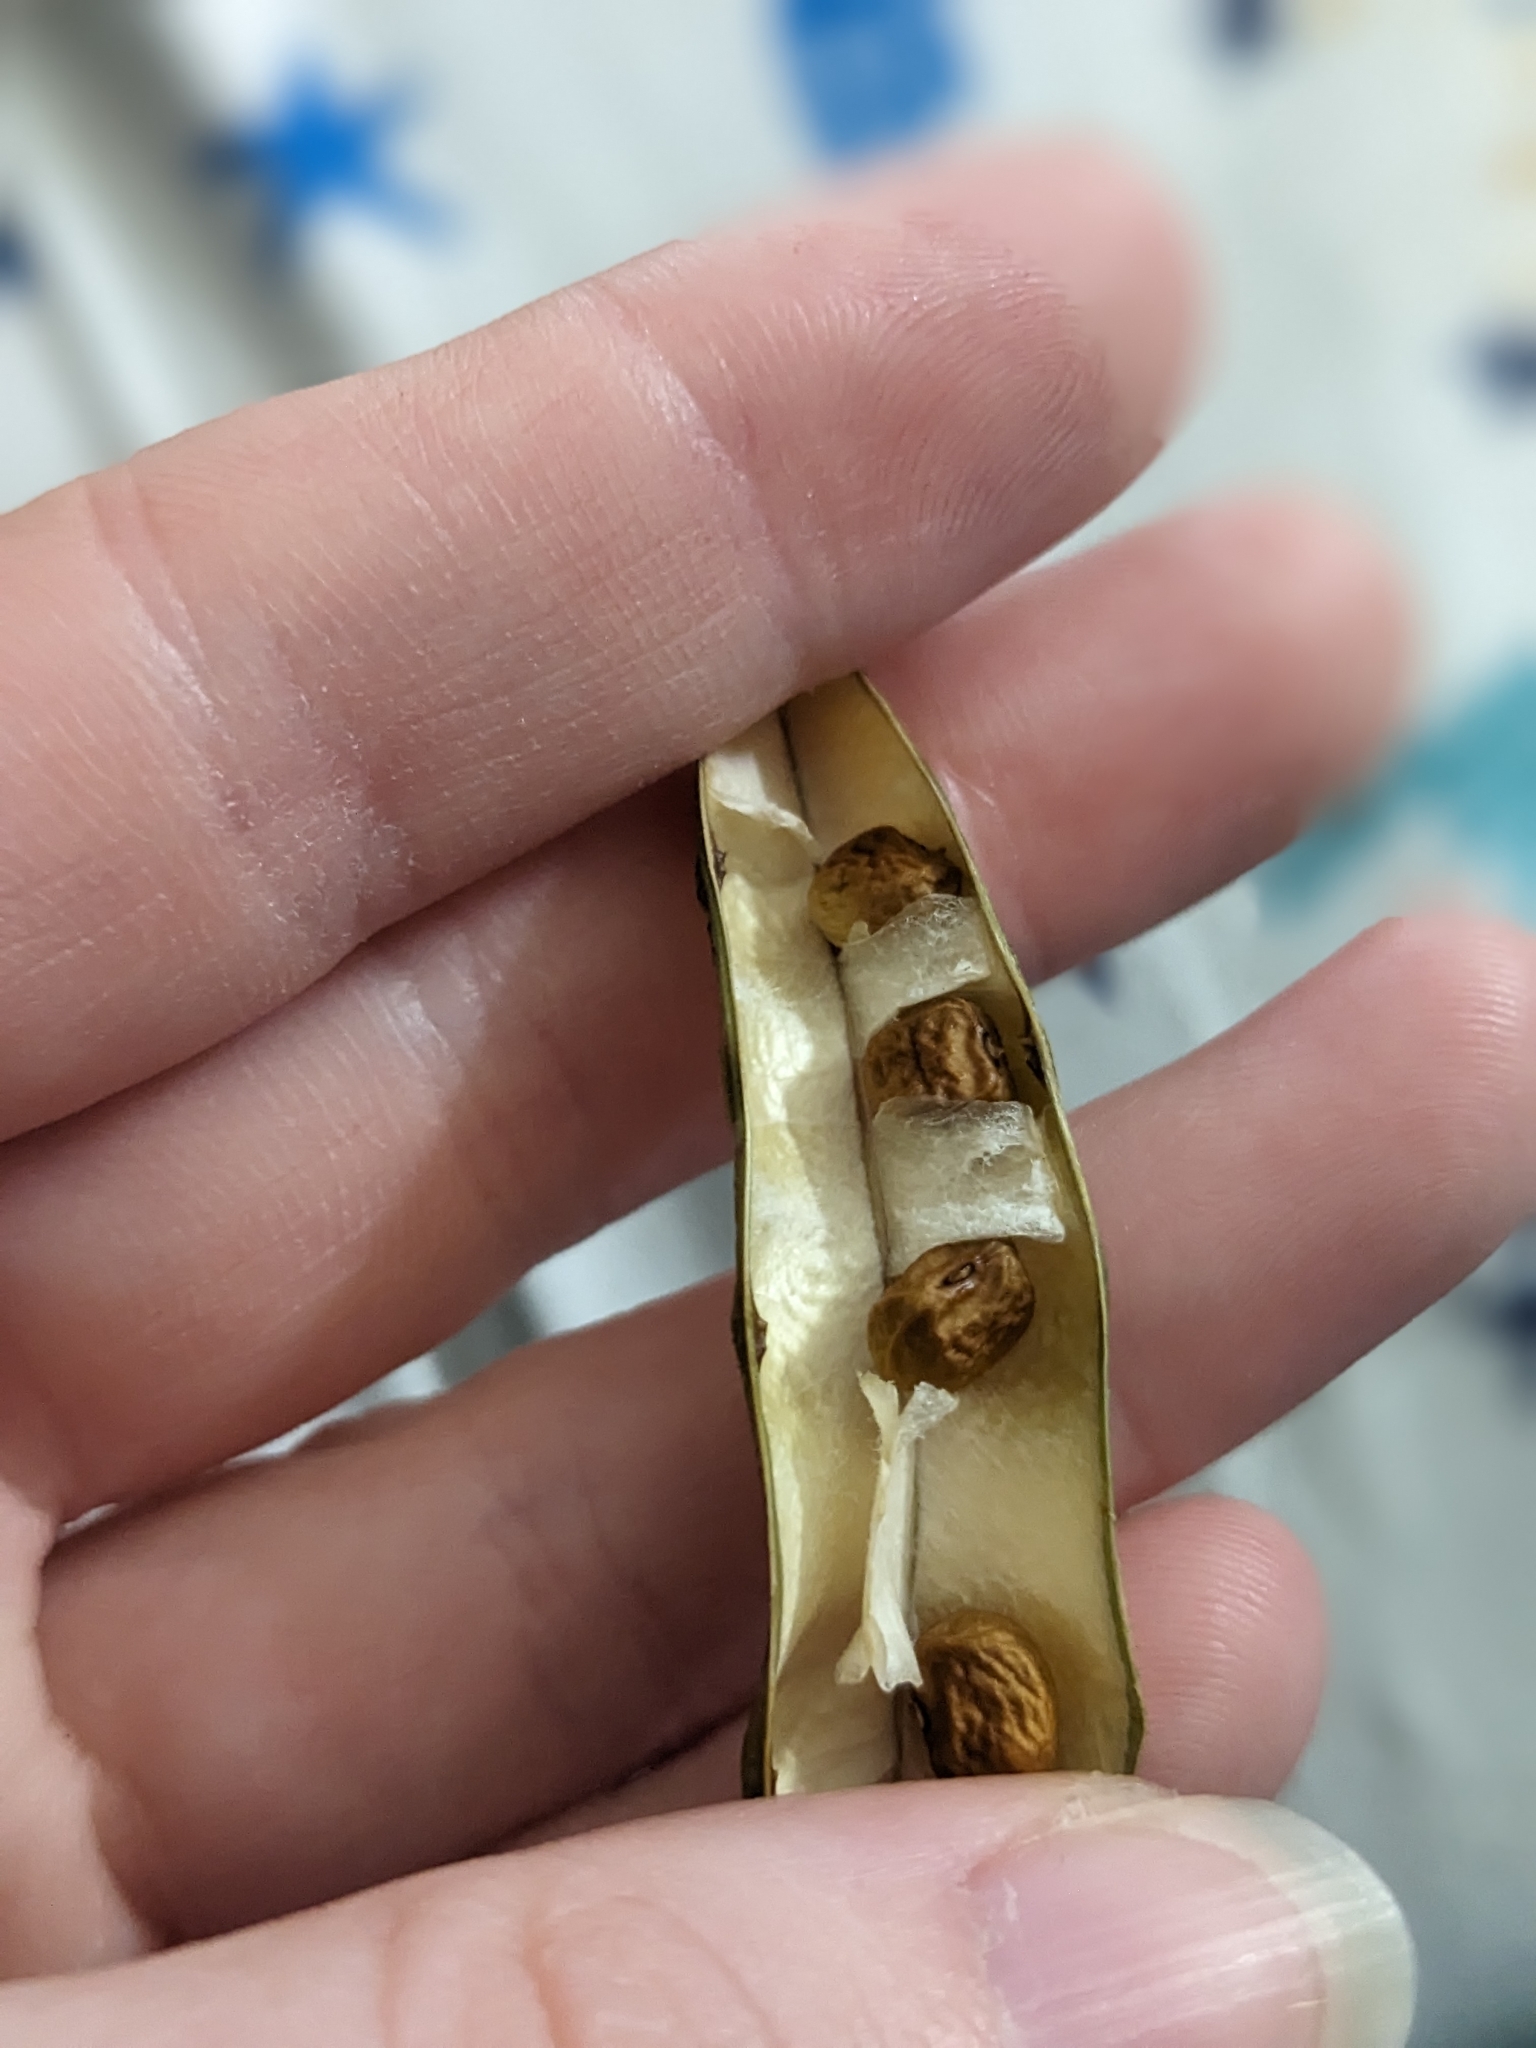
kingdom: Plantae
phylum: Tracheophyta
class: Magnoliopsida
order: Fabales
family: Fabaceae
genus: Apios
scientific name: Apios americana
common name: American potato-bean
